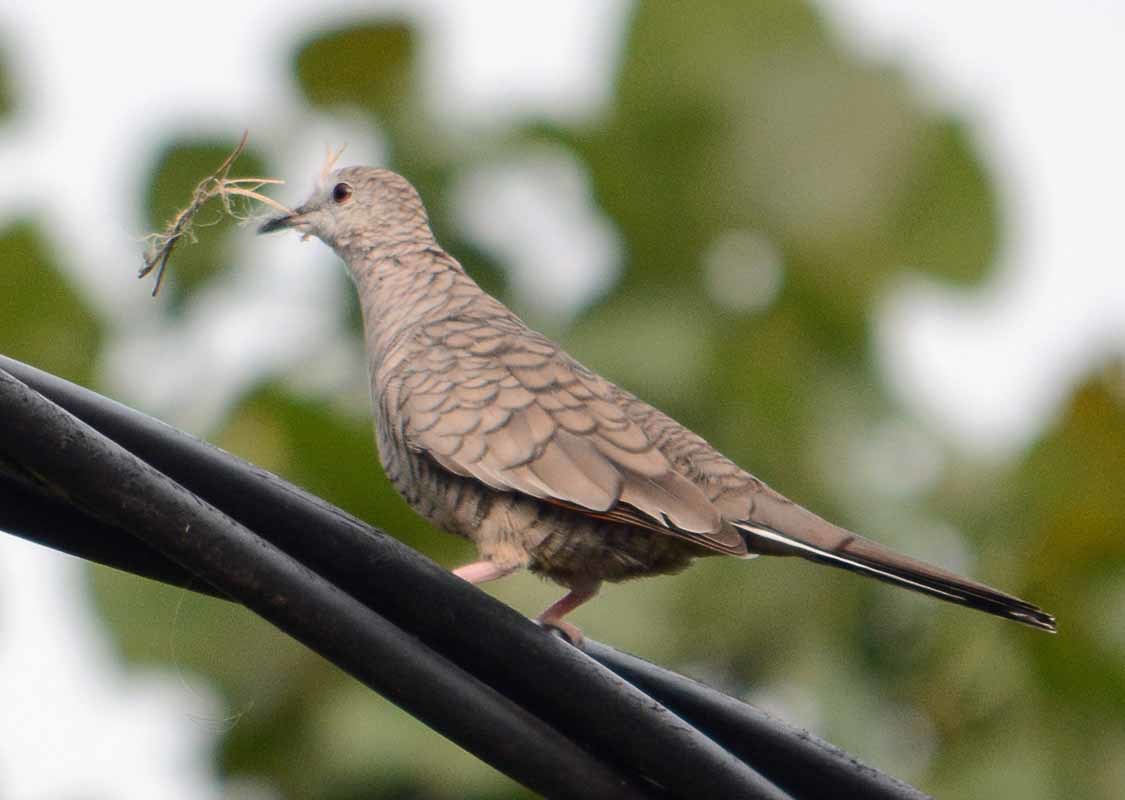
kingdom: Animalia
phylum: Chordata
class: Aves
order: Columbiformes
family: Columbidae
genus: Columbina
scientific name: Columbina inca
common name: Inca dove
